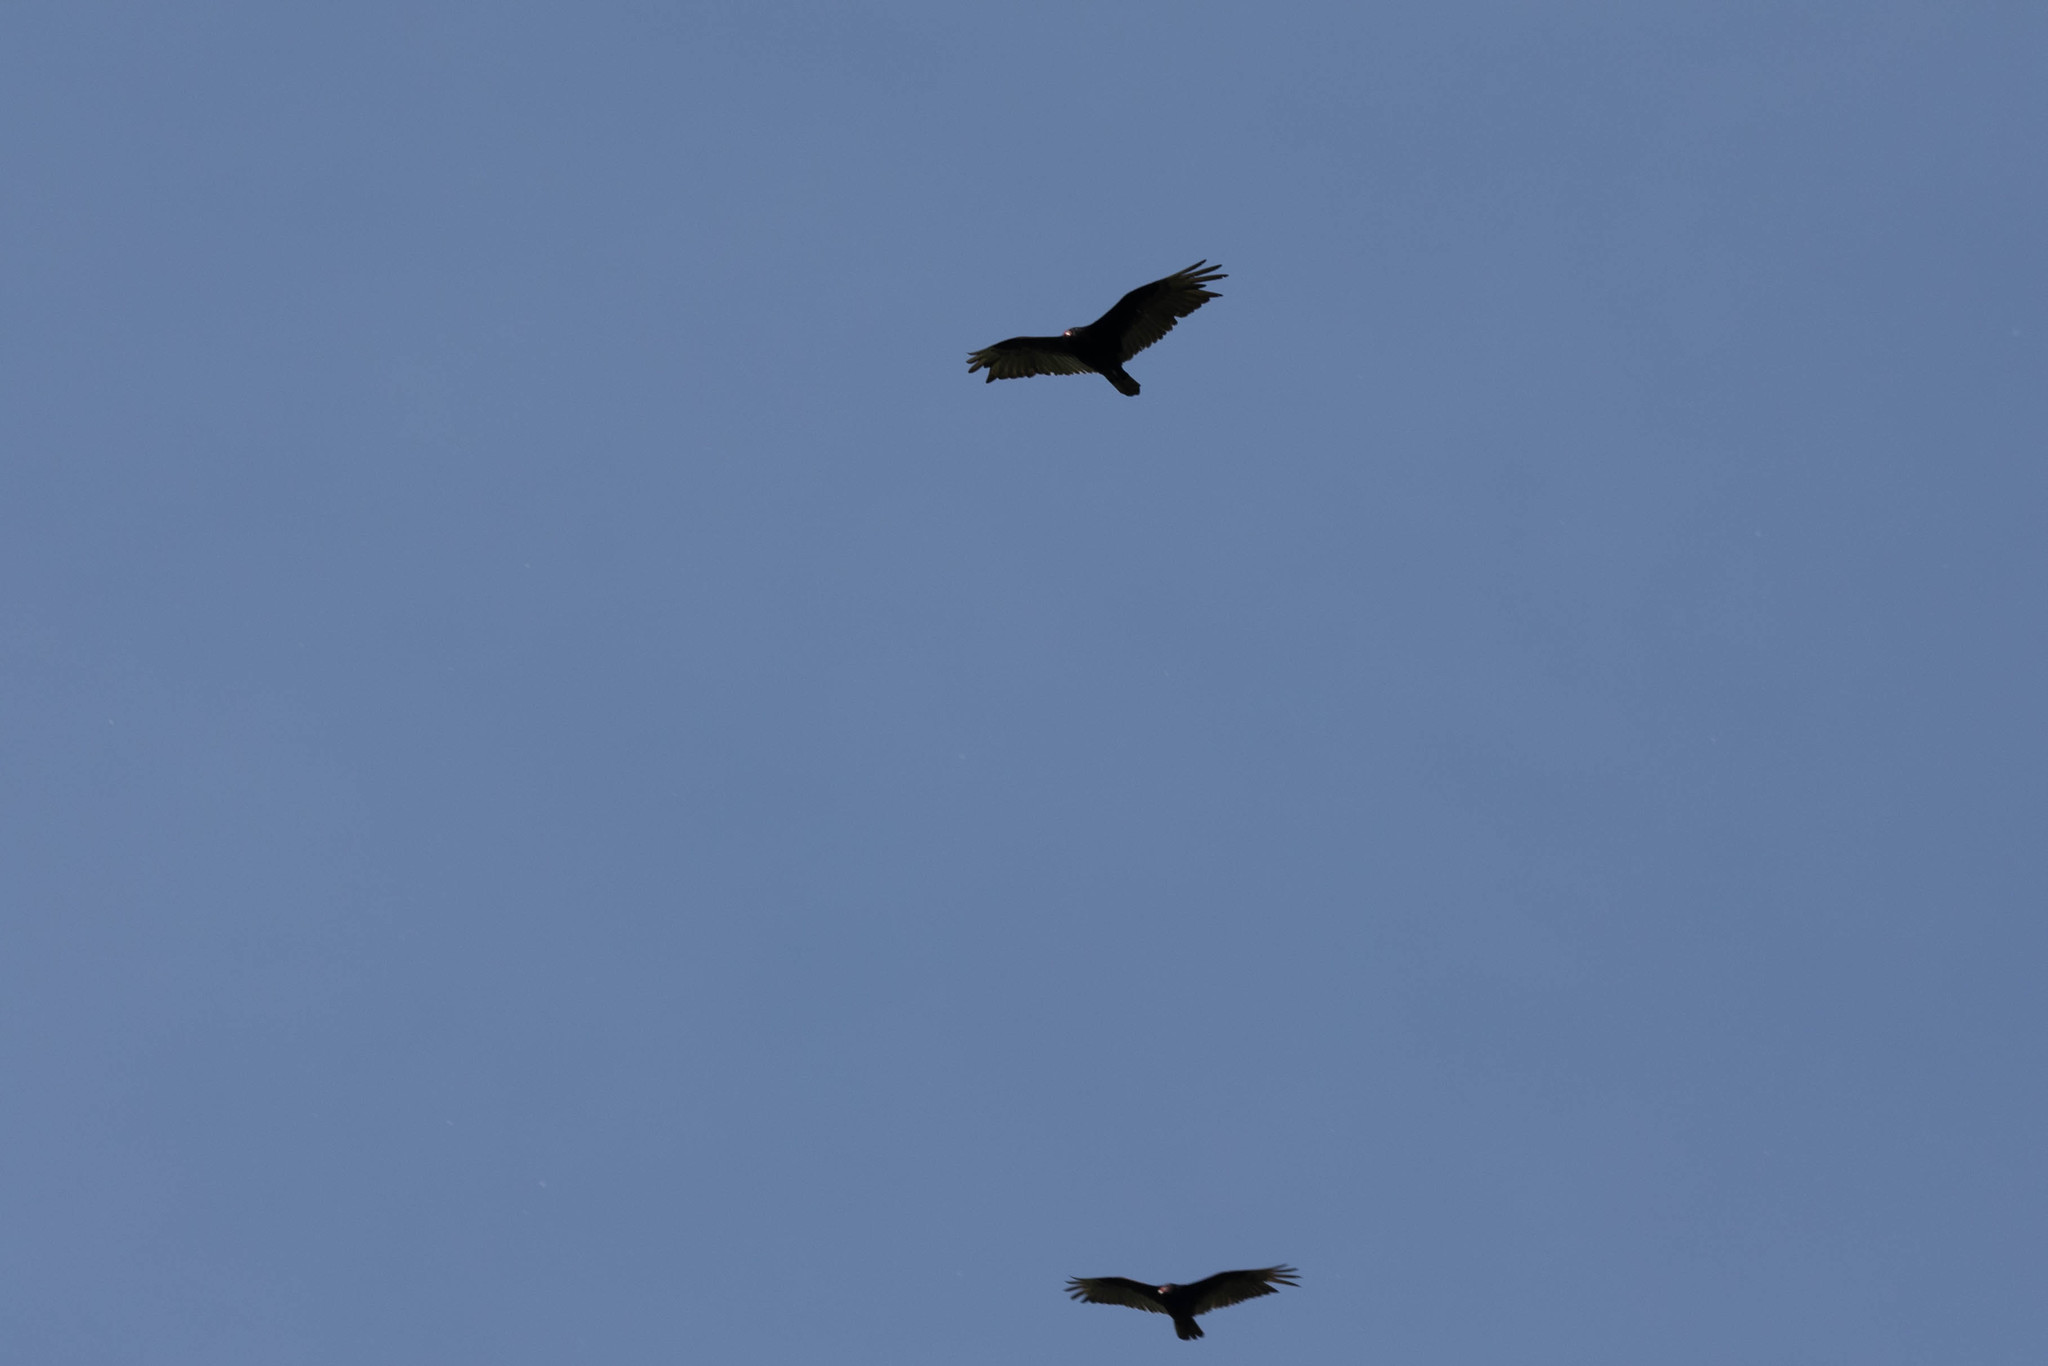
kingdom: Animalia
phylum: Chordata
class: Aves
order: Accipitriformes
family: Cathartidae
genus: Cathartes
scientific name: Cathartes aura
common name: Turkey vulture
